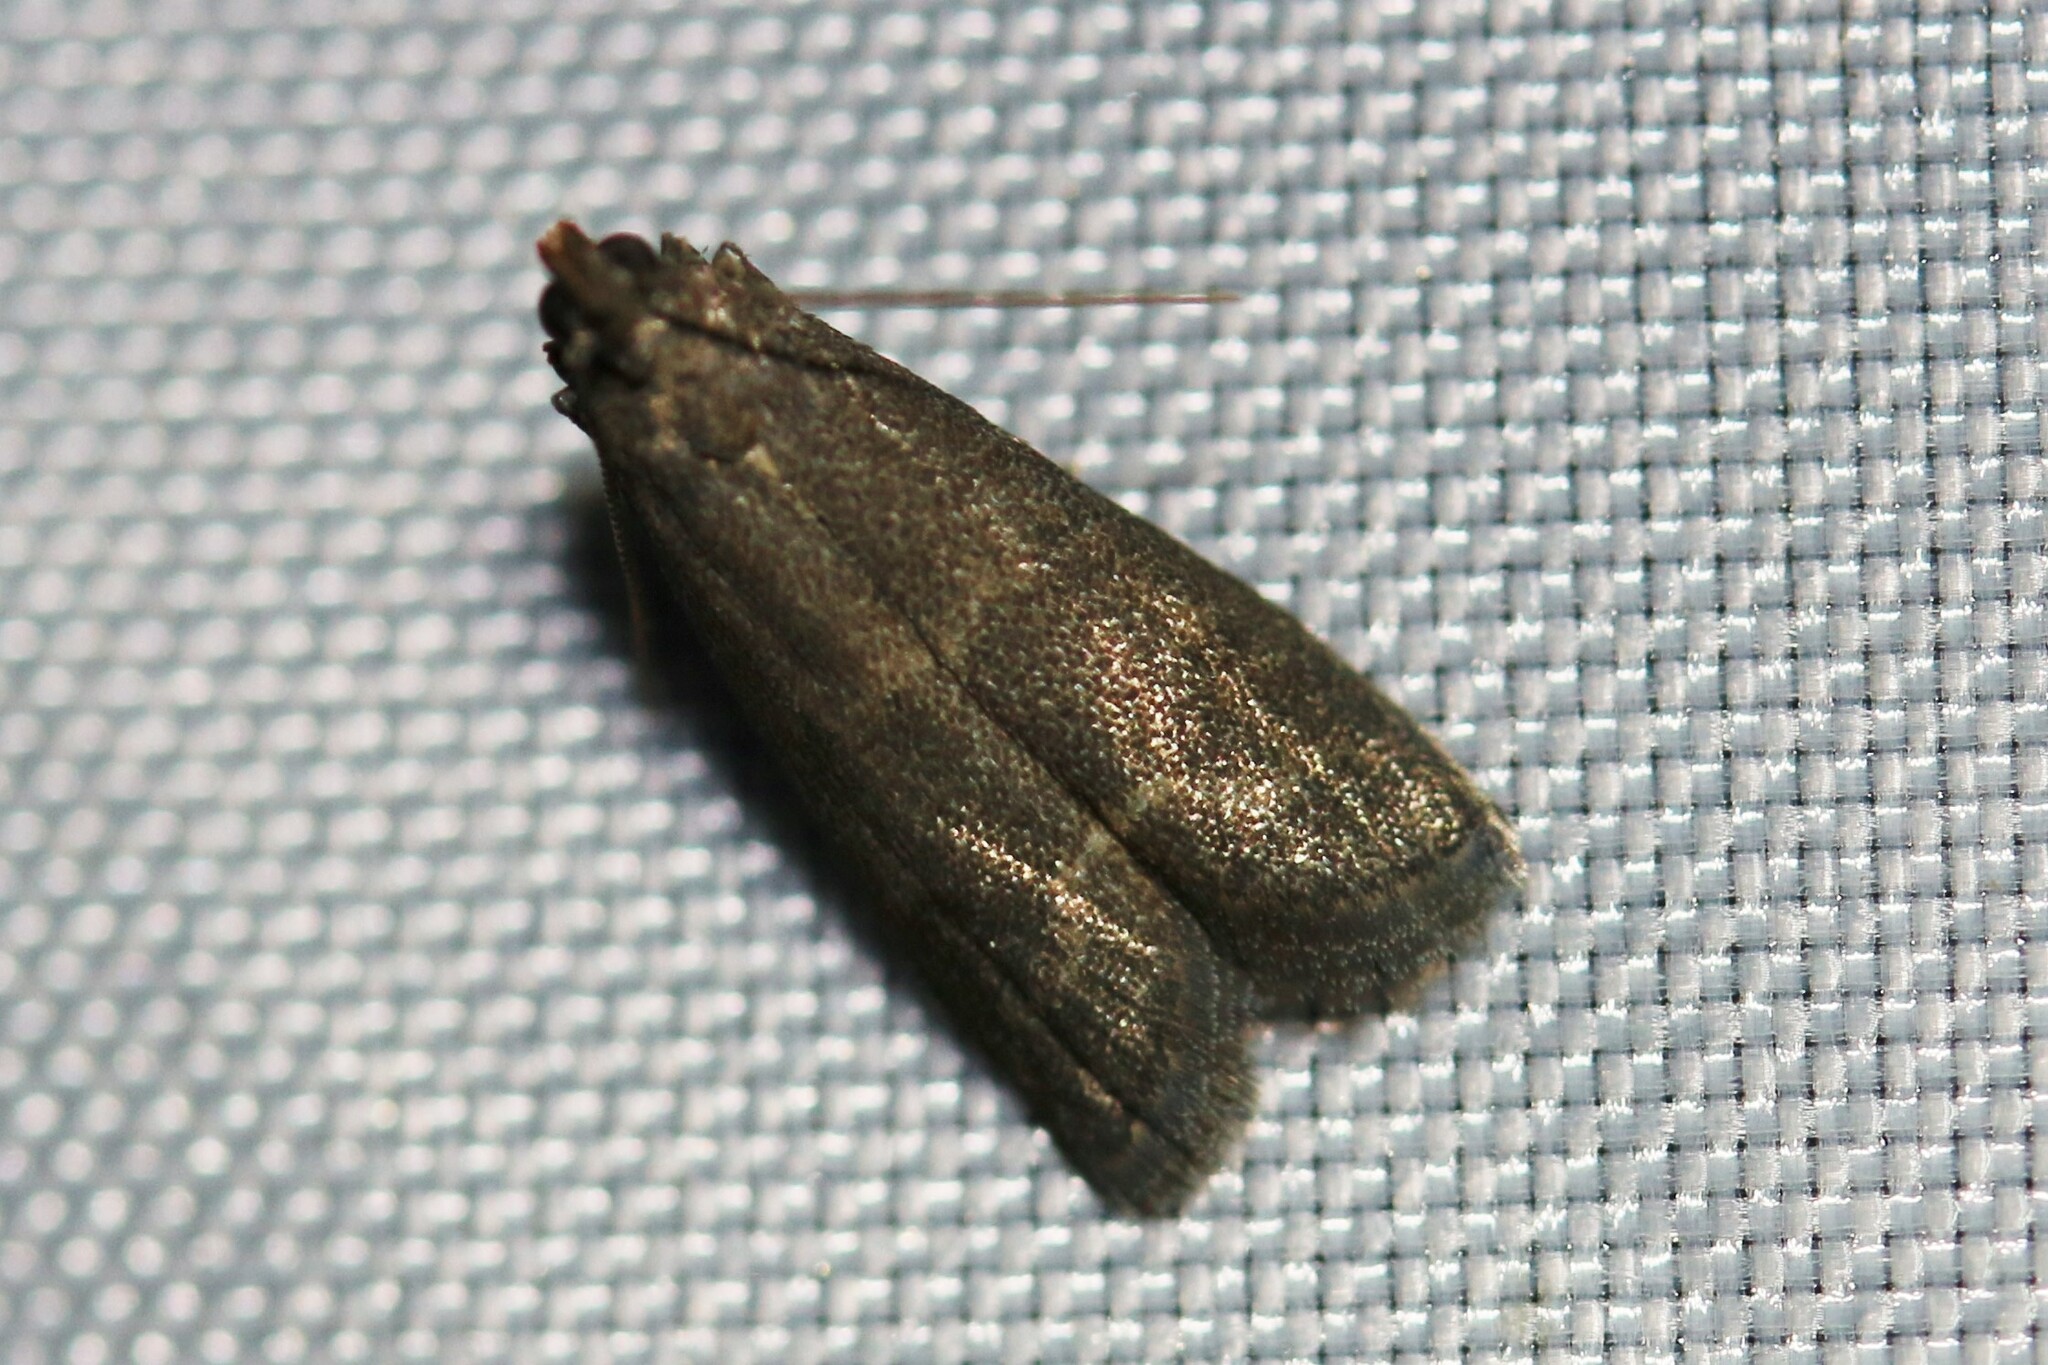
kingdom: Animalia
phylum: Arthropoda
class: Insecta
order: Lepidoptera
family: Pyralidae
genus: Eccopisa
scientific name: Eccopisa effractella
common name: Royal knot-horn
